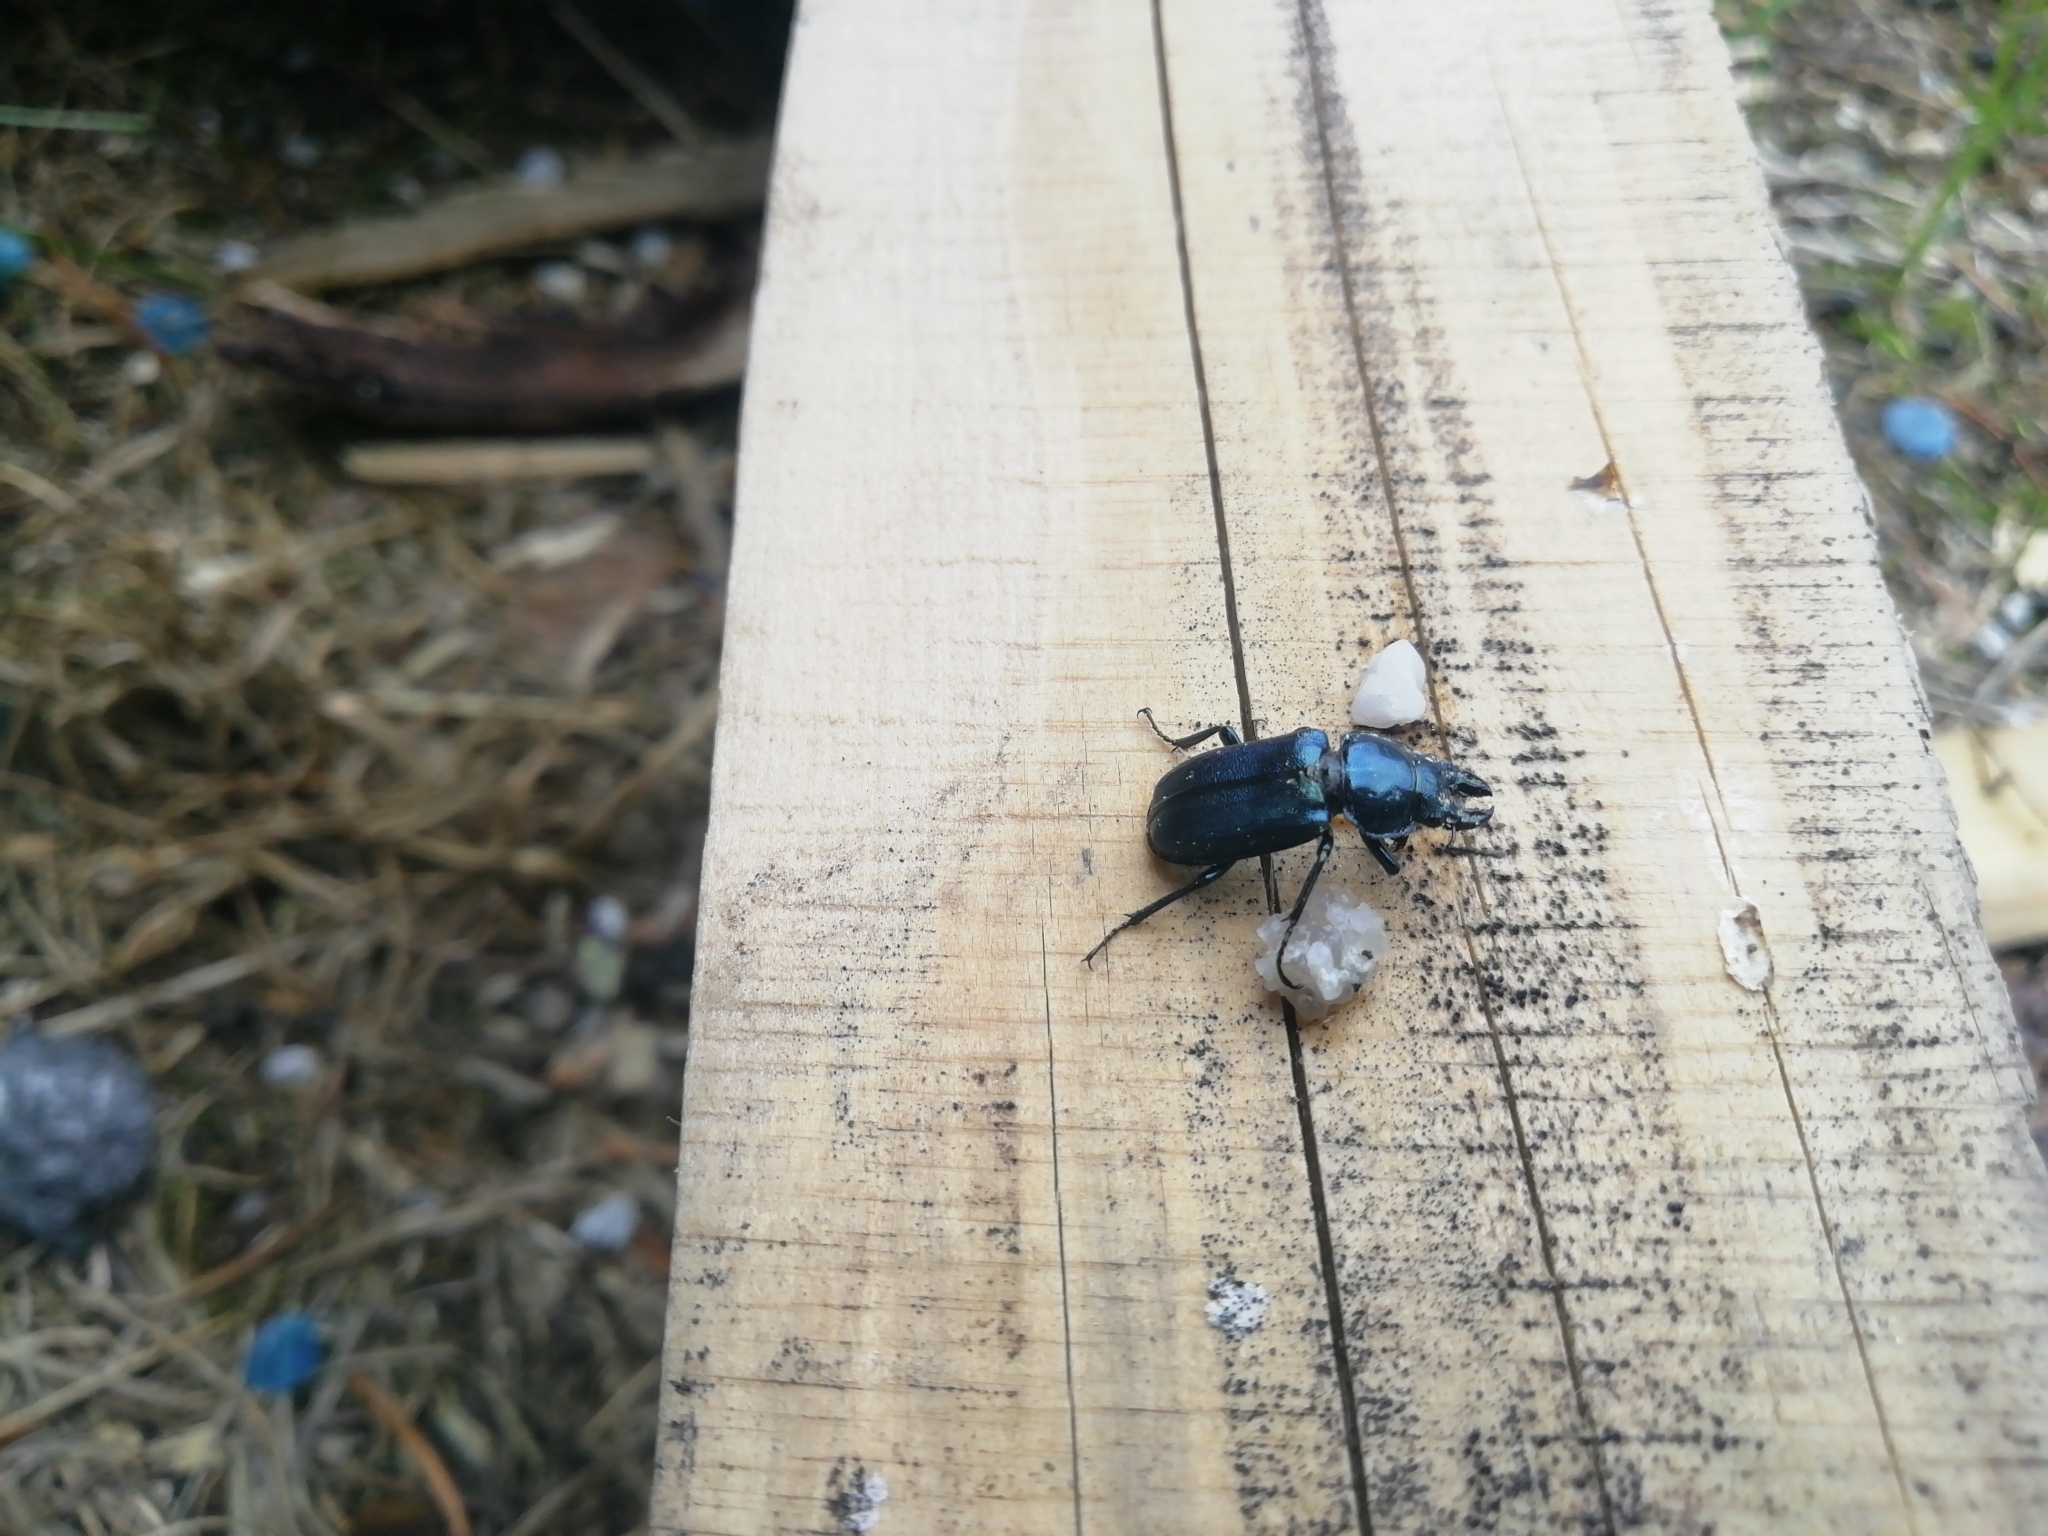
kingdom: Animalia
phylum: Arthropoda
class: Insecta
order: Coleoptera
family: Lucanidae
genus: Platycerus
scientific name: Platycerus caraboides
